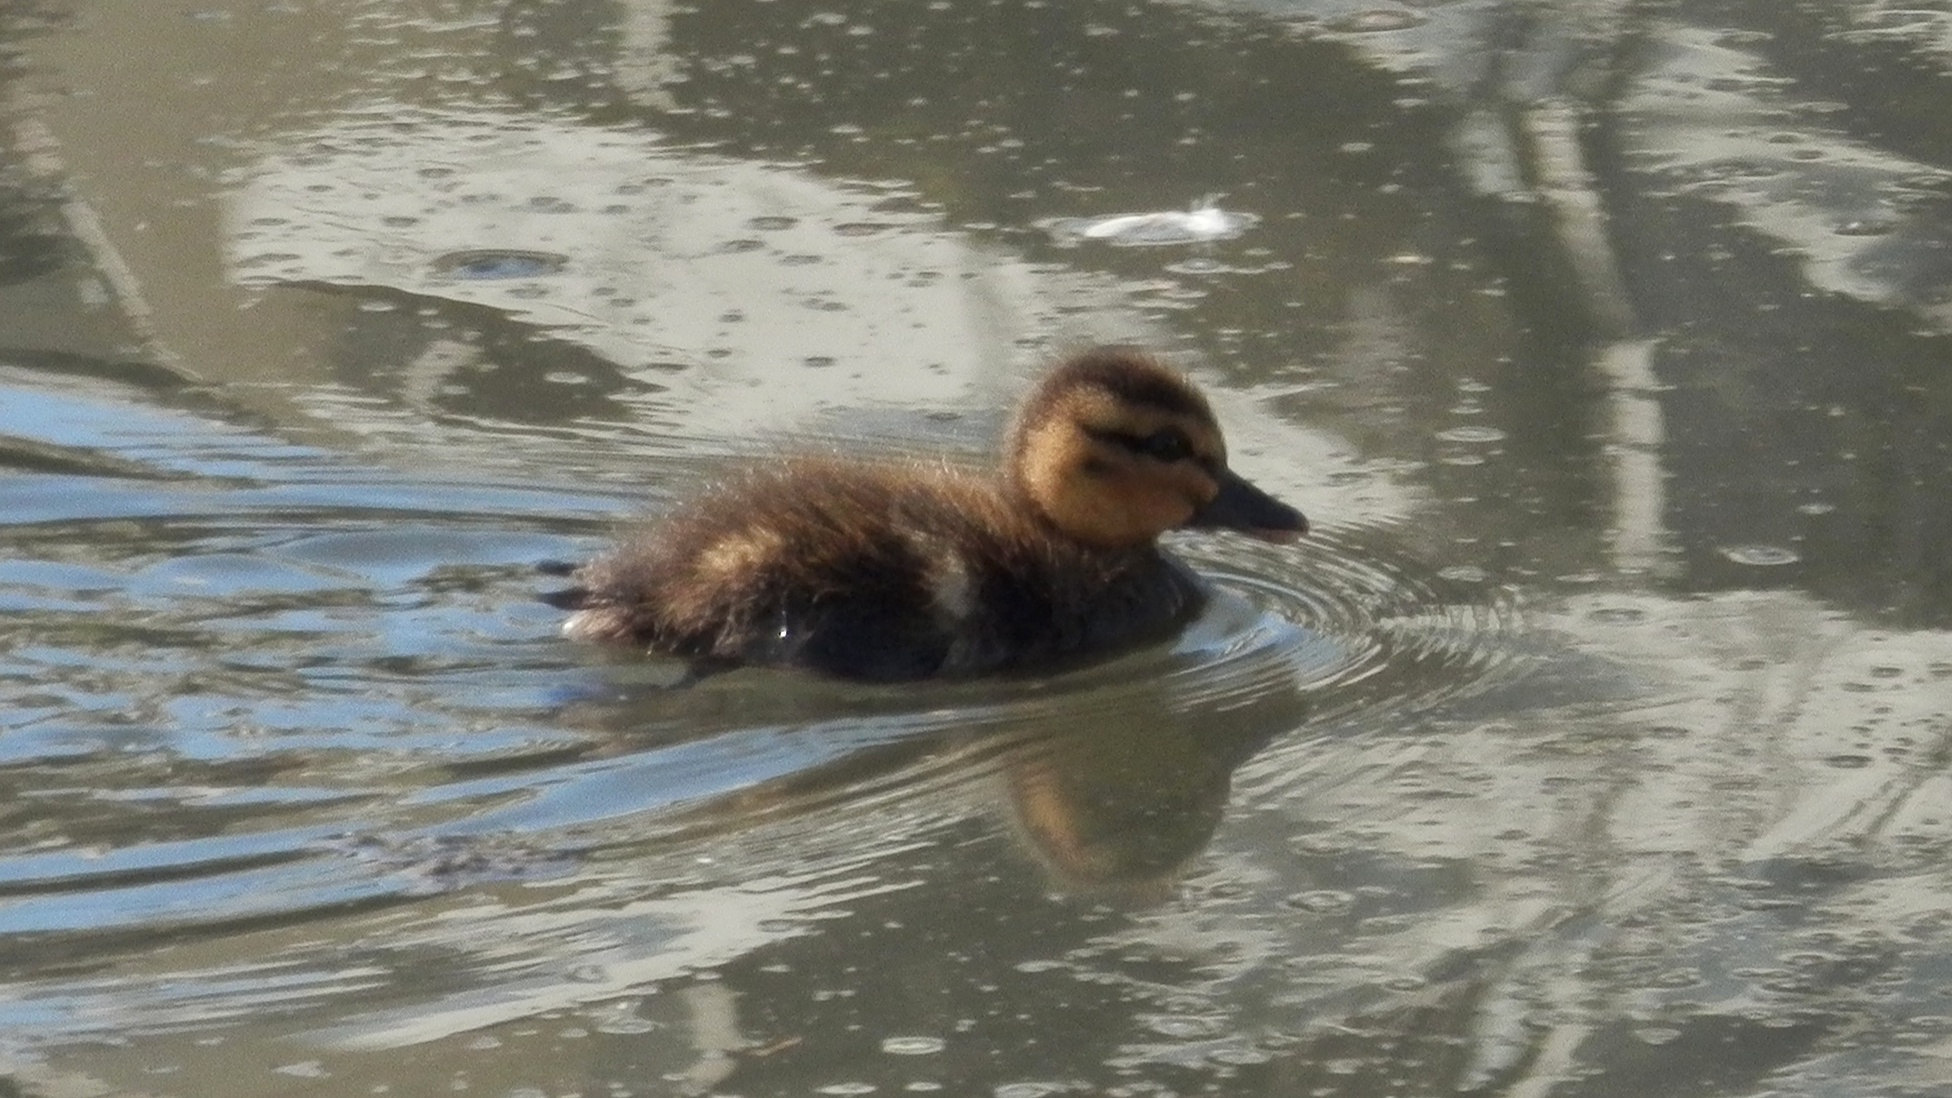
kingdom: Animalia
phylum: Chordata
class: Aves
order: Anseriformes
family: Anatidae
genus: Anas
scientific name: Anas platyrhynchos
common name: Mallard
